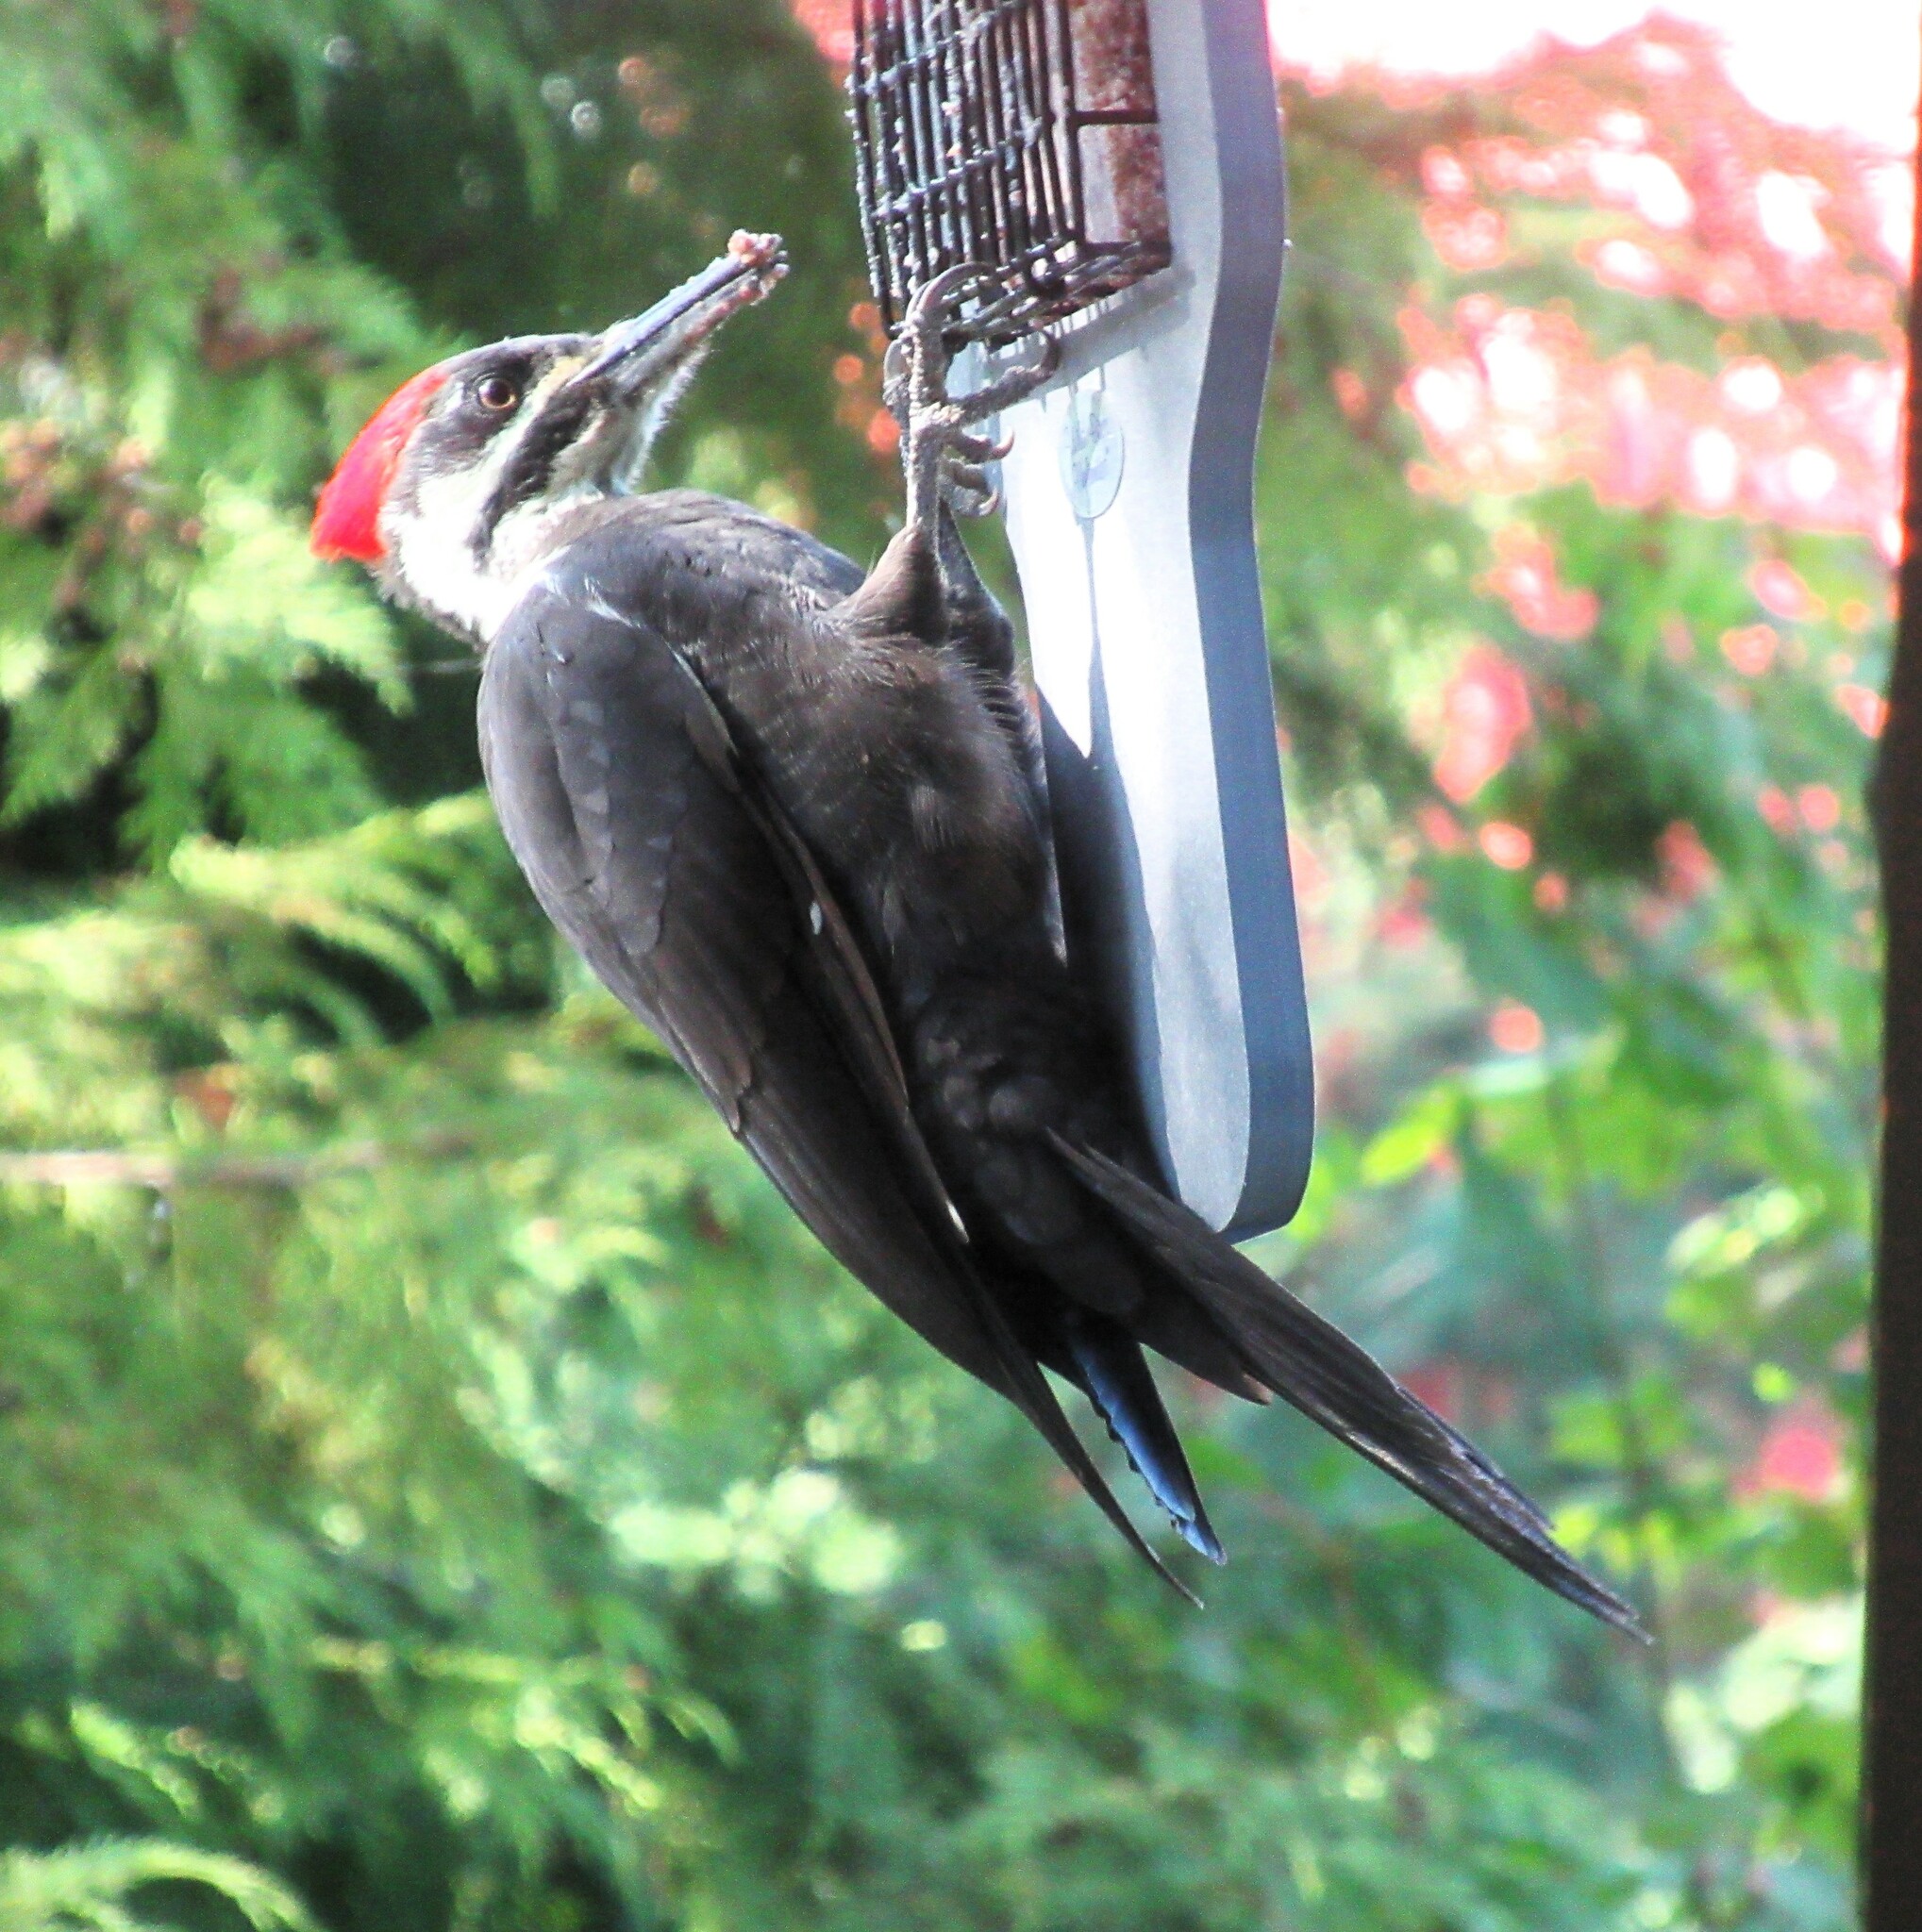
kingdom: Animalia
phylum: Chordata
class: Aves
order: Piciformes
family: Picidae
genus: Dryocopus
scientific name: Dryocopus pileatus
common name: Pileated woodpecker
